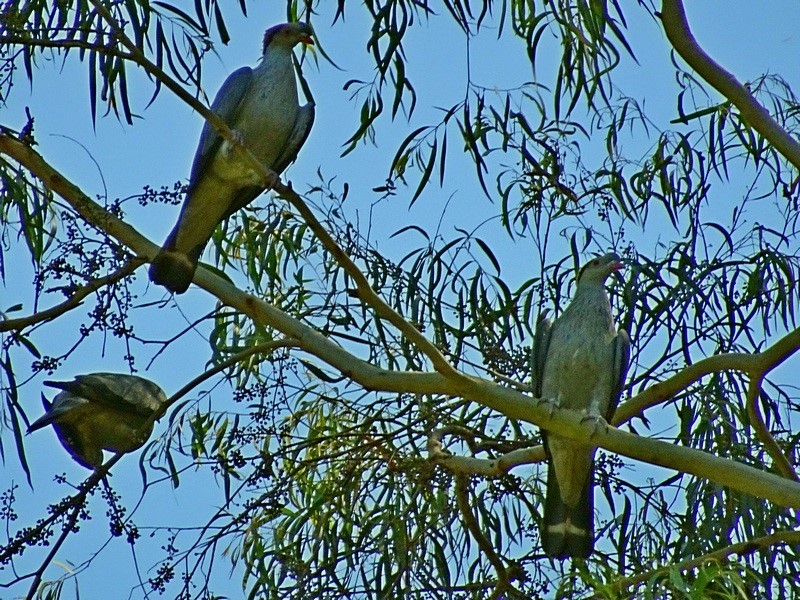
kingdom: Animalia
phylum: Chordata
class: Aves
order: Columbiformes
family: Columbidae
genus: Lopholaimus
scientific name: Lopholaimus antarcticus
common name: Topknot pigeon
